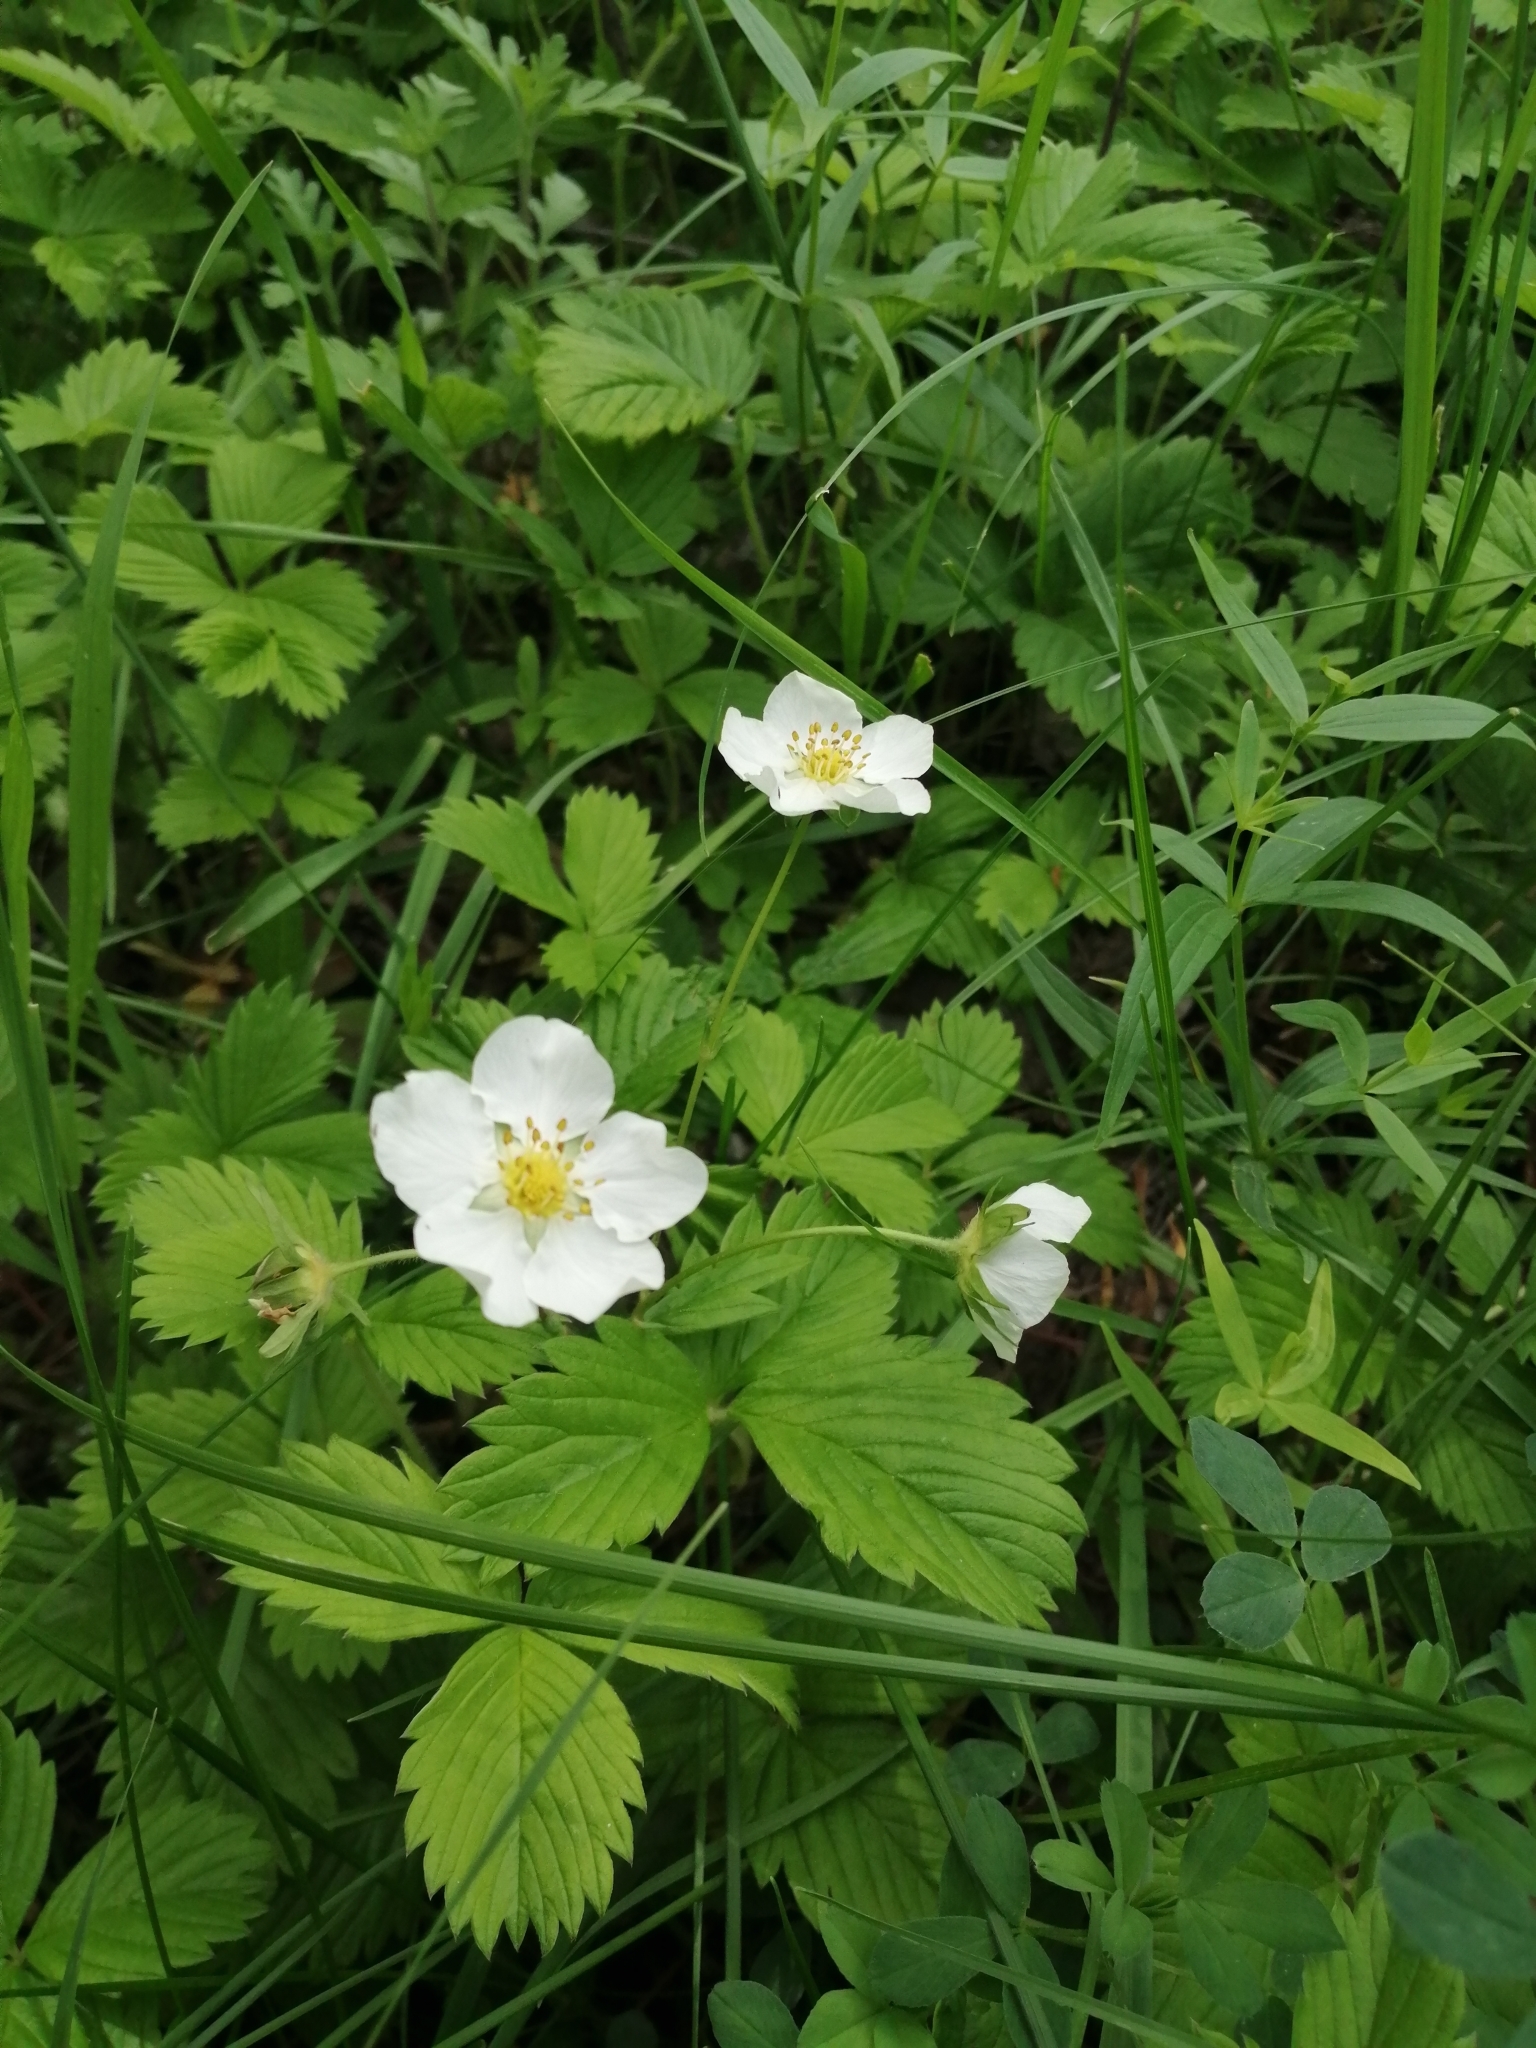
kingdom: Plantae
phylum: Tracheophyta
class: Magnoliopsida
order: Rosales
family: Rosaceae
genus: Fragaria
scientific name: Fragaria viridis
